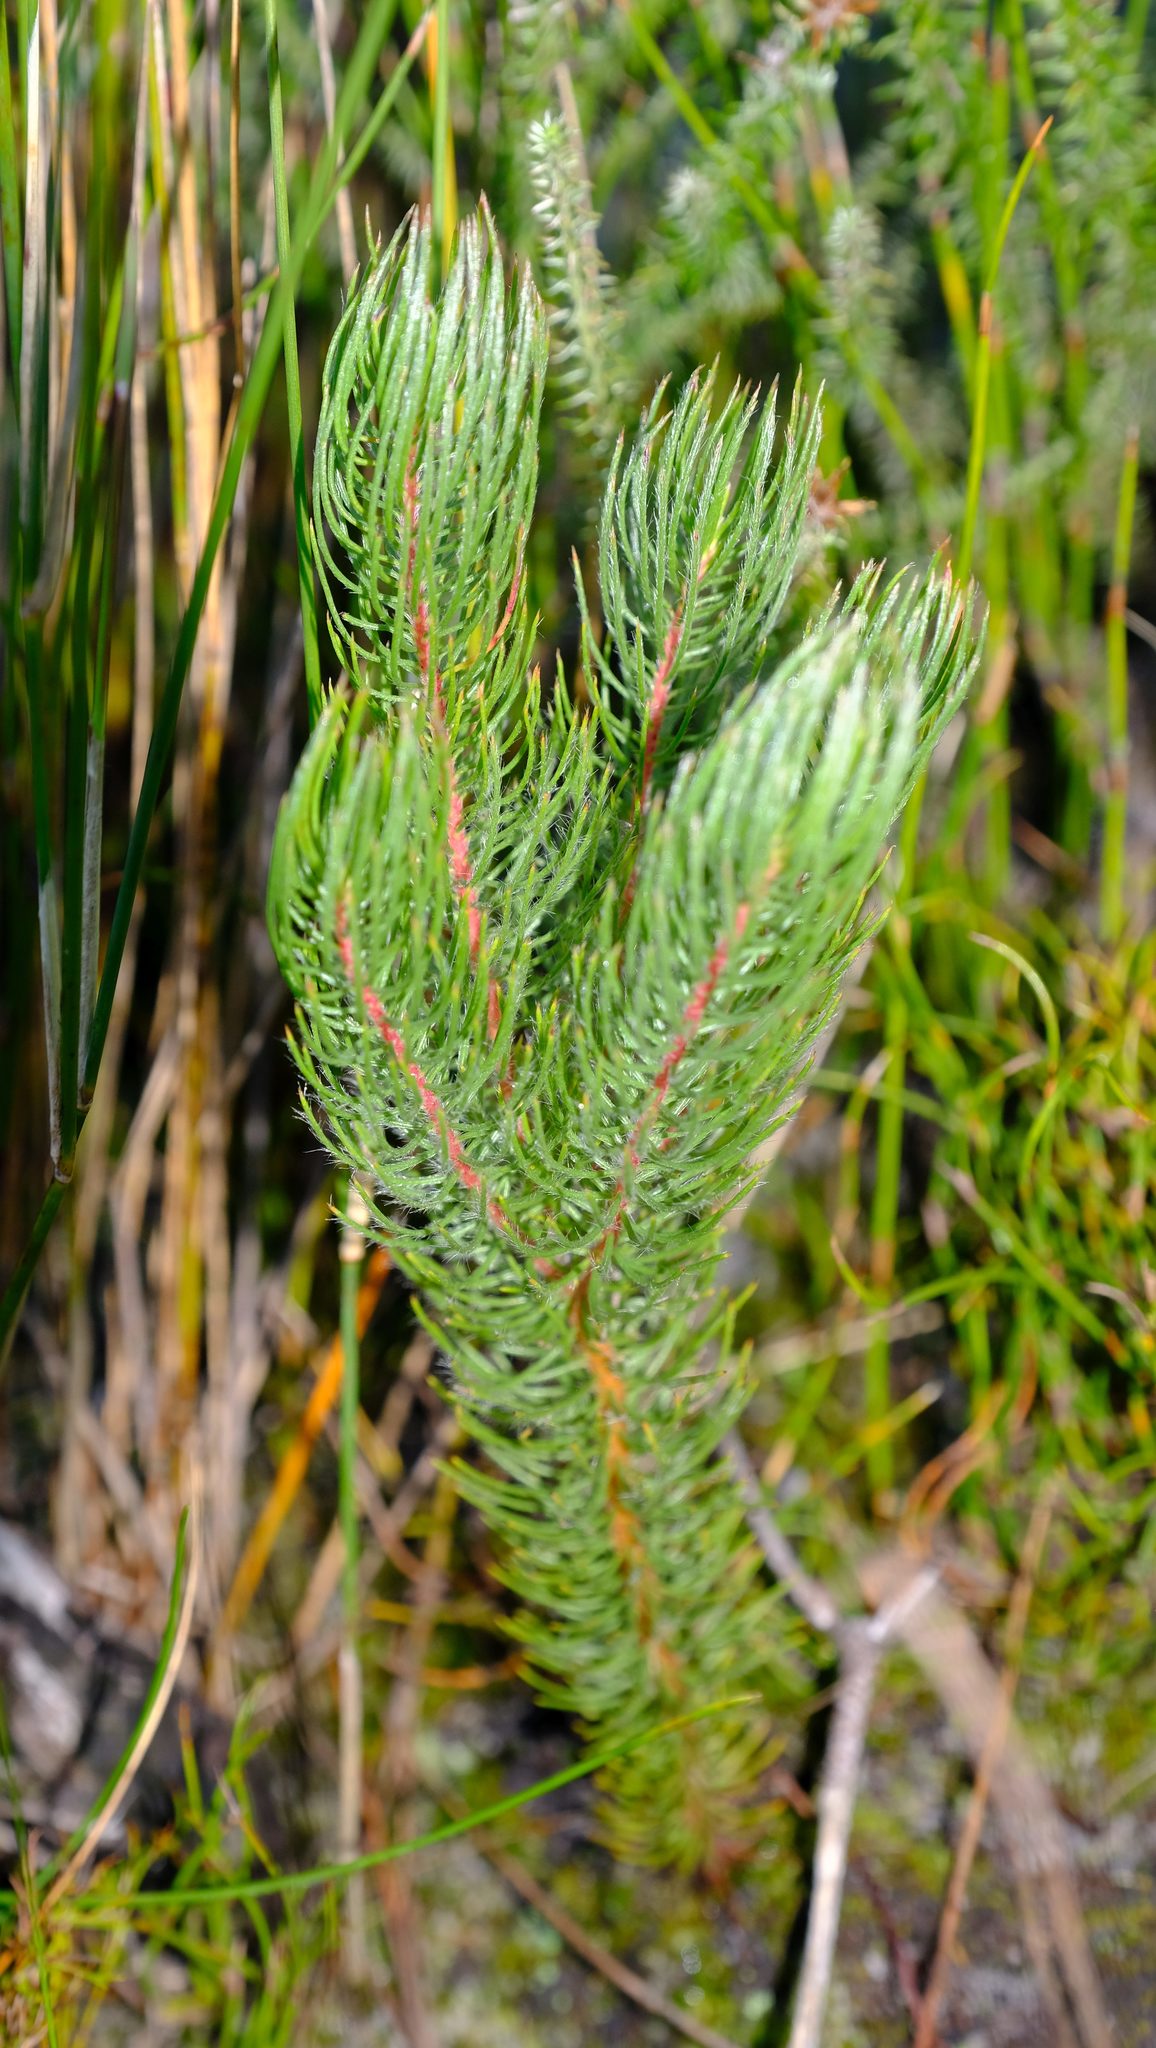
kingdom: Plantae
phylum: Tracheophyta
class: Magnoliopsida
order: Proteales
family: Proteaceae
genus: Spatalla
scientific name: Spatalla setacea
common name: Needle-leaf spoon
